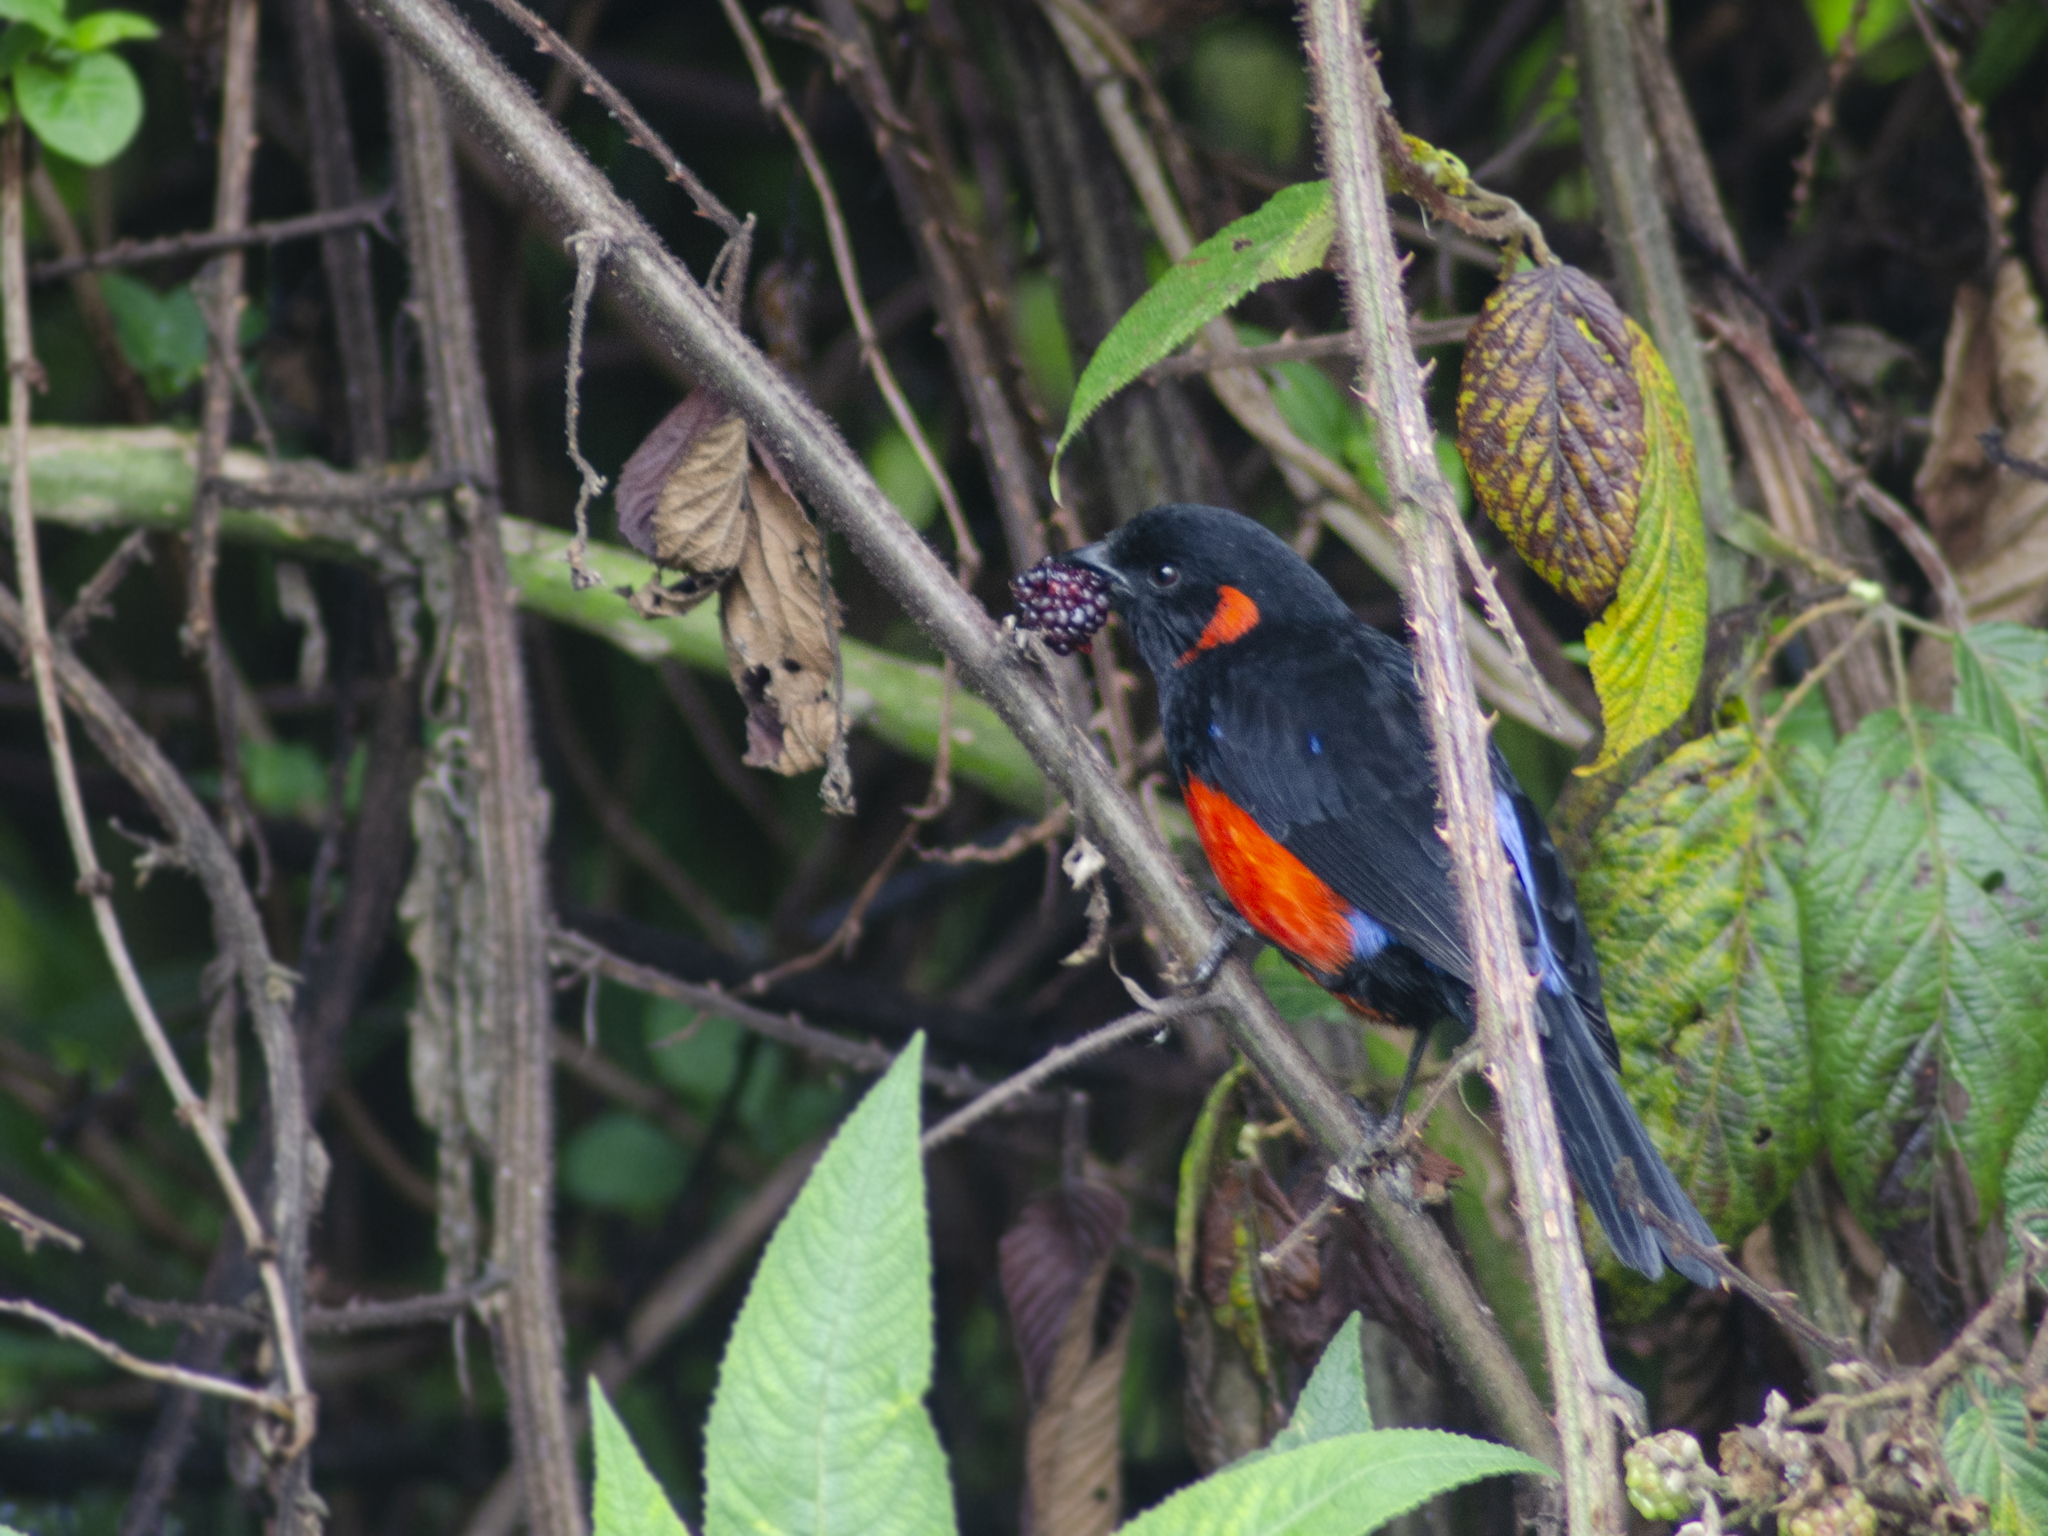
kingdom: Animalia
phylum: Chordata
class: Aves
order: Passeriformes
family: Thraupidae
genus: Anisognathus
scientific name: Anisognathus igniventris
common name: Scarlet-bellied mountain tanager
